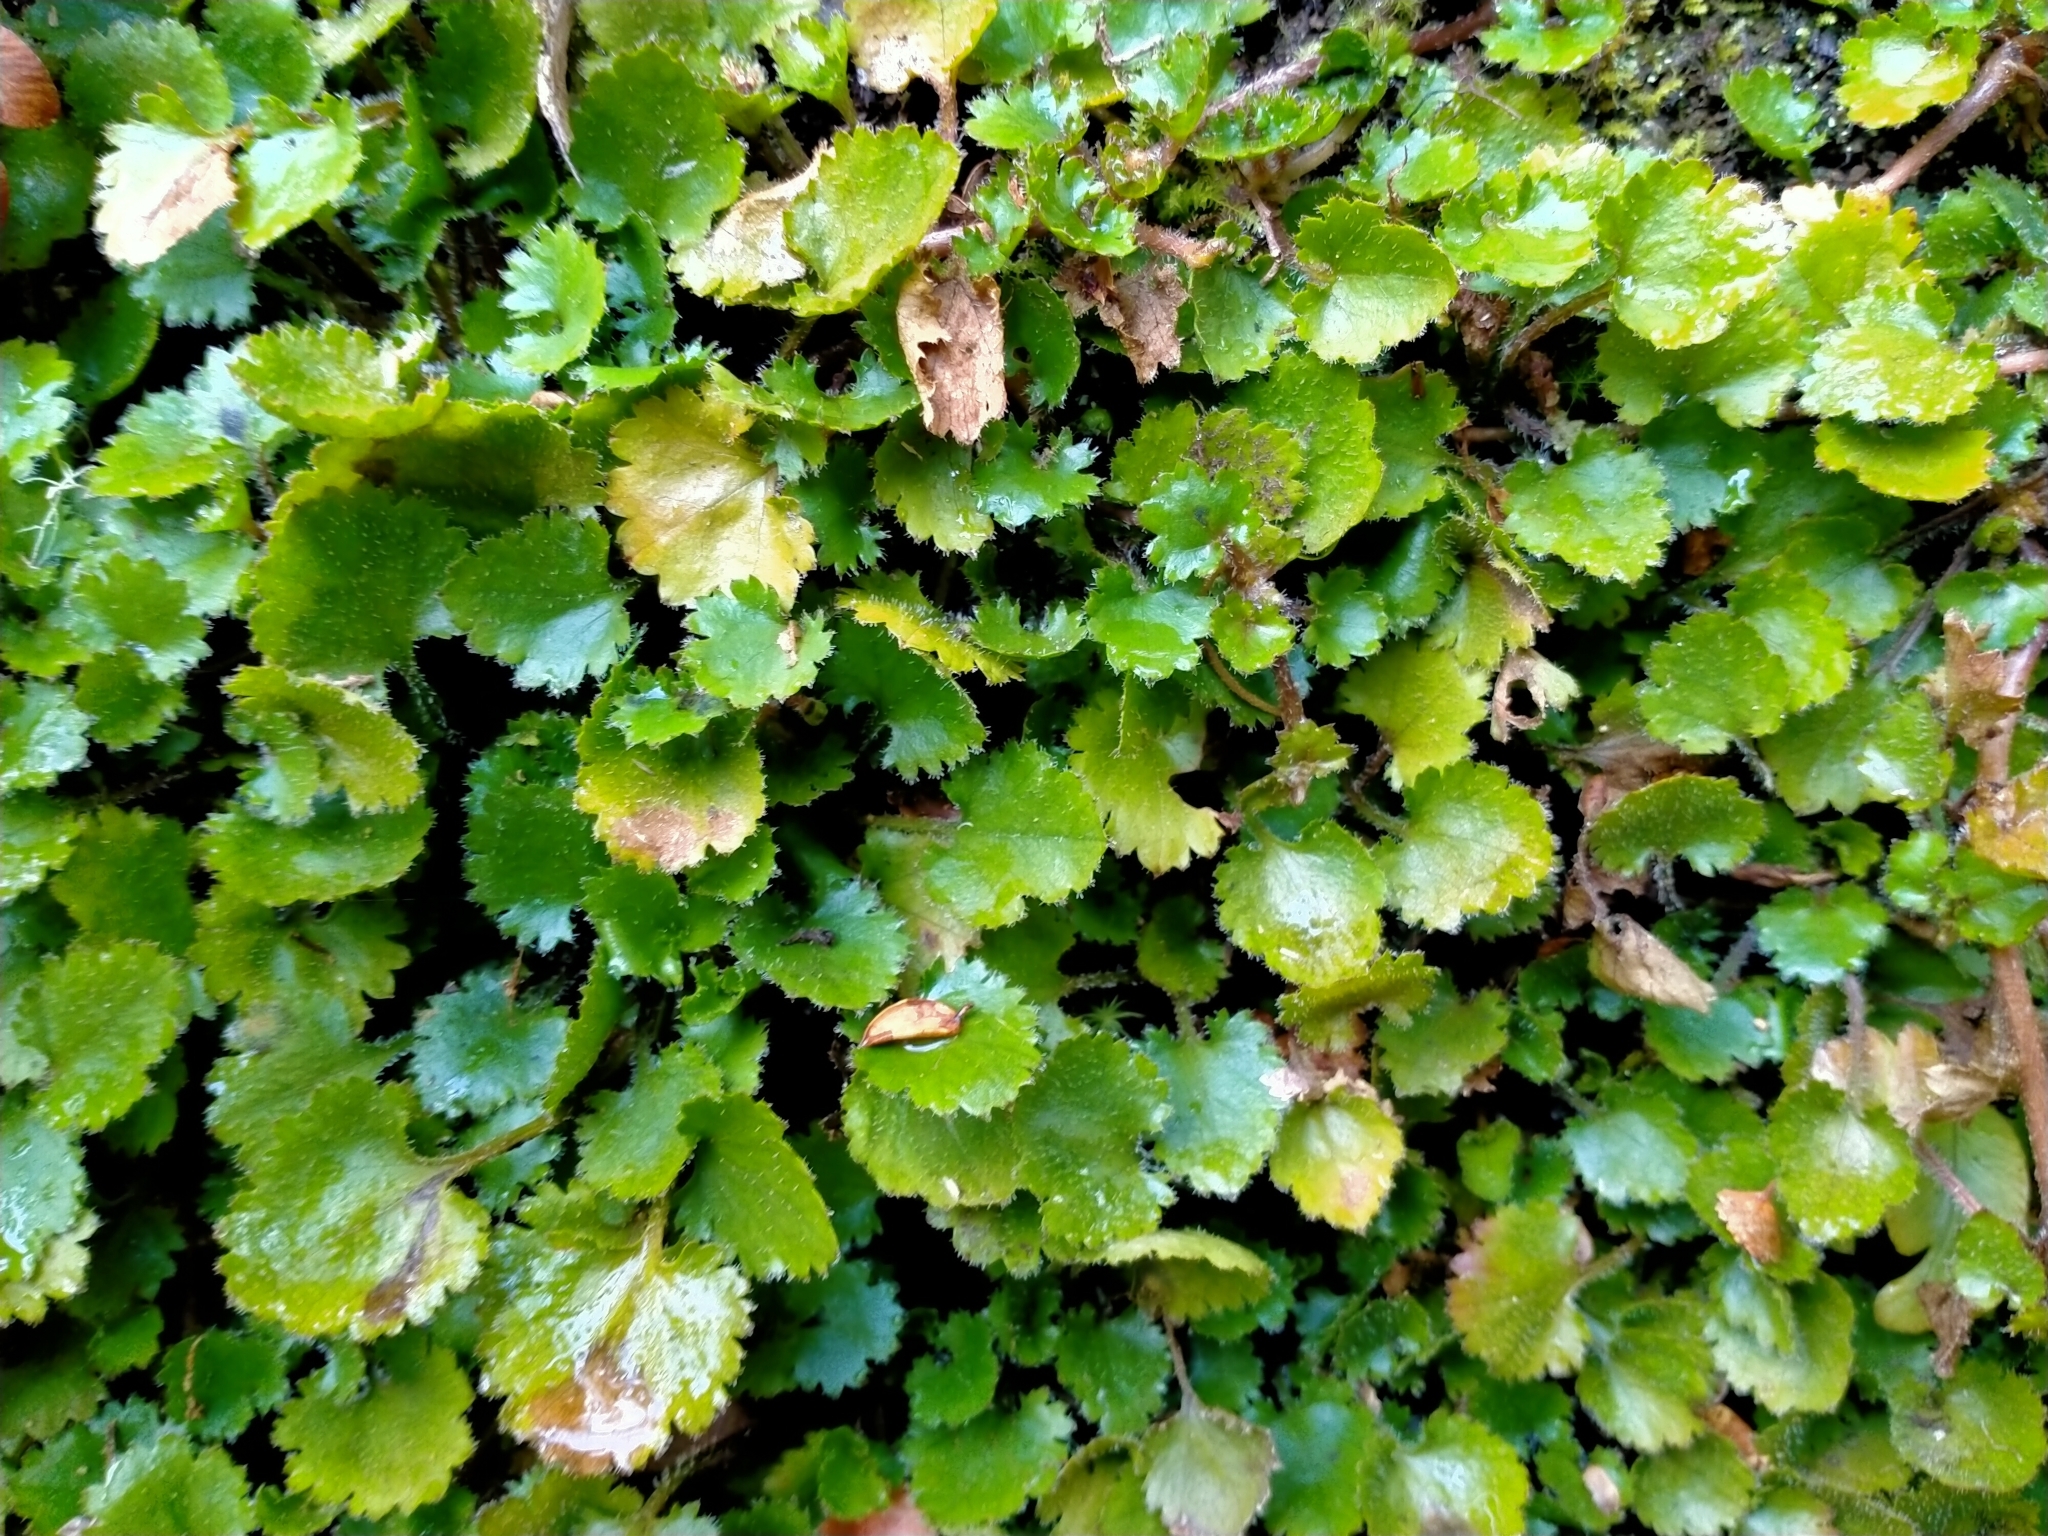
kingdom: Plantae
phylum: Tracheophyta
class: Magnoliopsida
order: Gunnerales
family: Gunneraceae
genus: Gunnera
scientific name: Gunnera monoica
